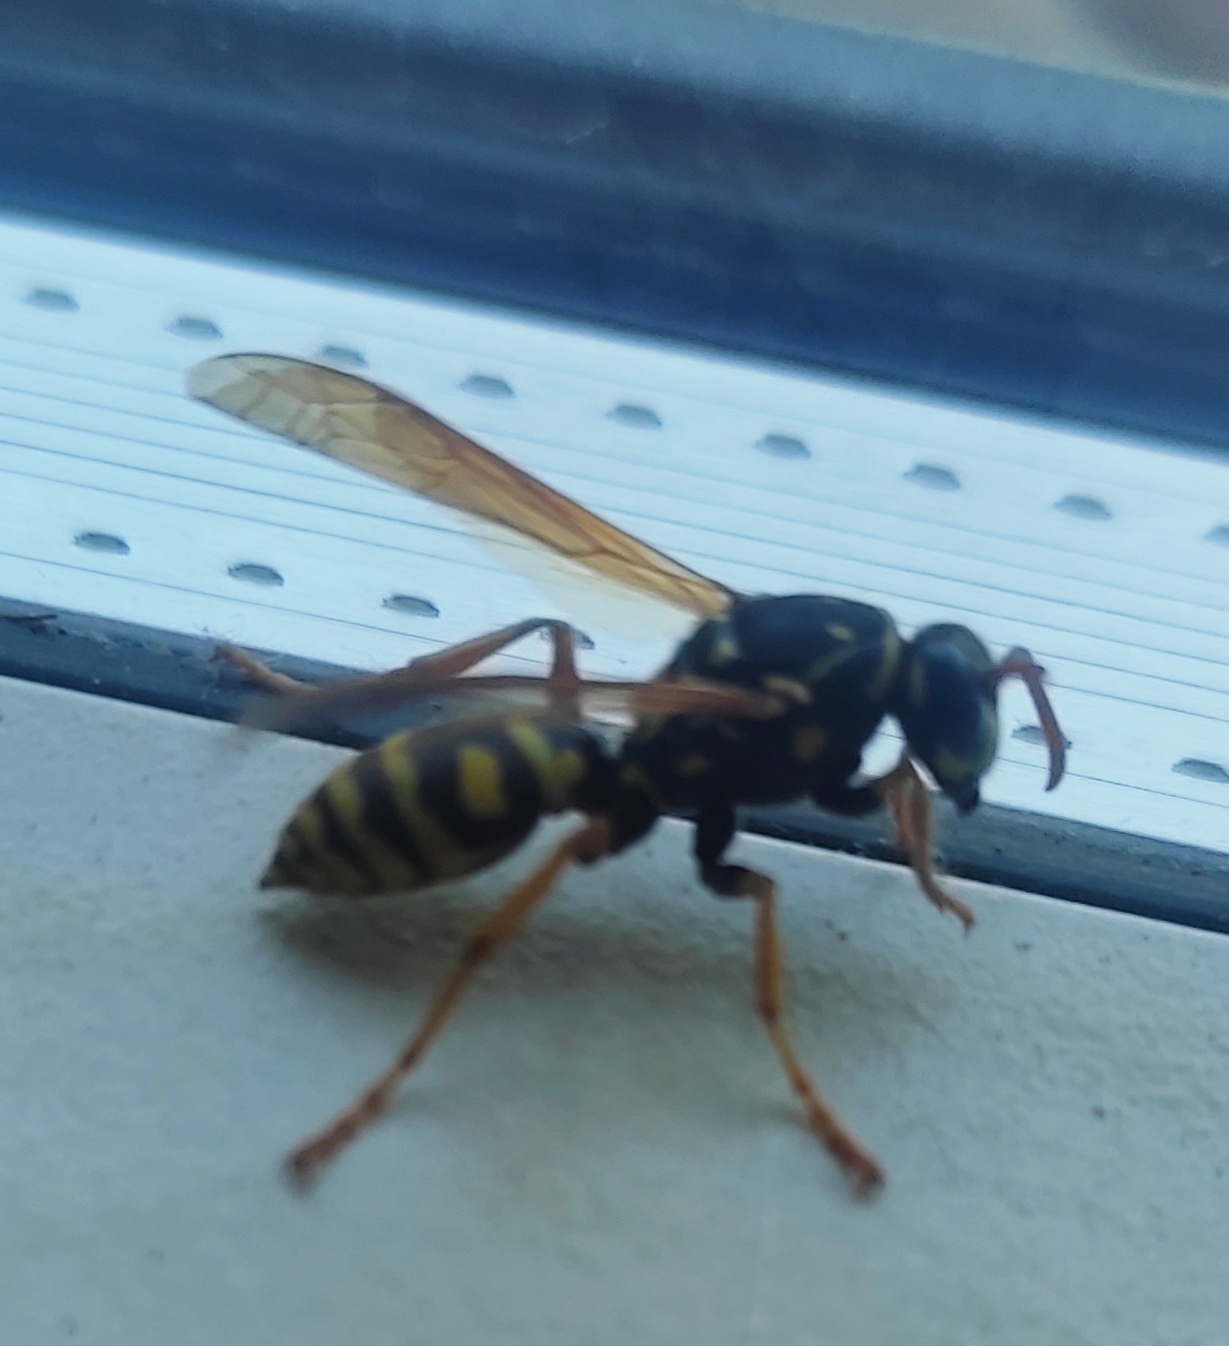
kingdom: Animalia
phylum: Arthropoda
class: Insecta
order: Hymenoptera
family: Eumenidae
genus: Polistes
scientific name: Polistes dominula
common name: Paper wasp
